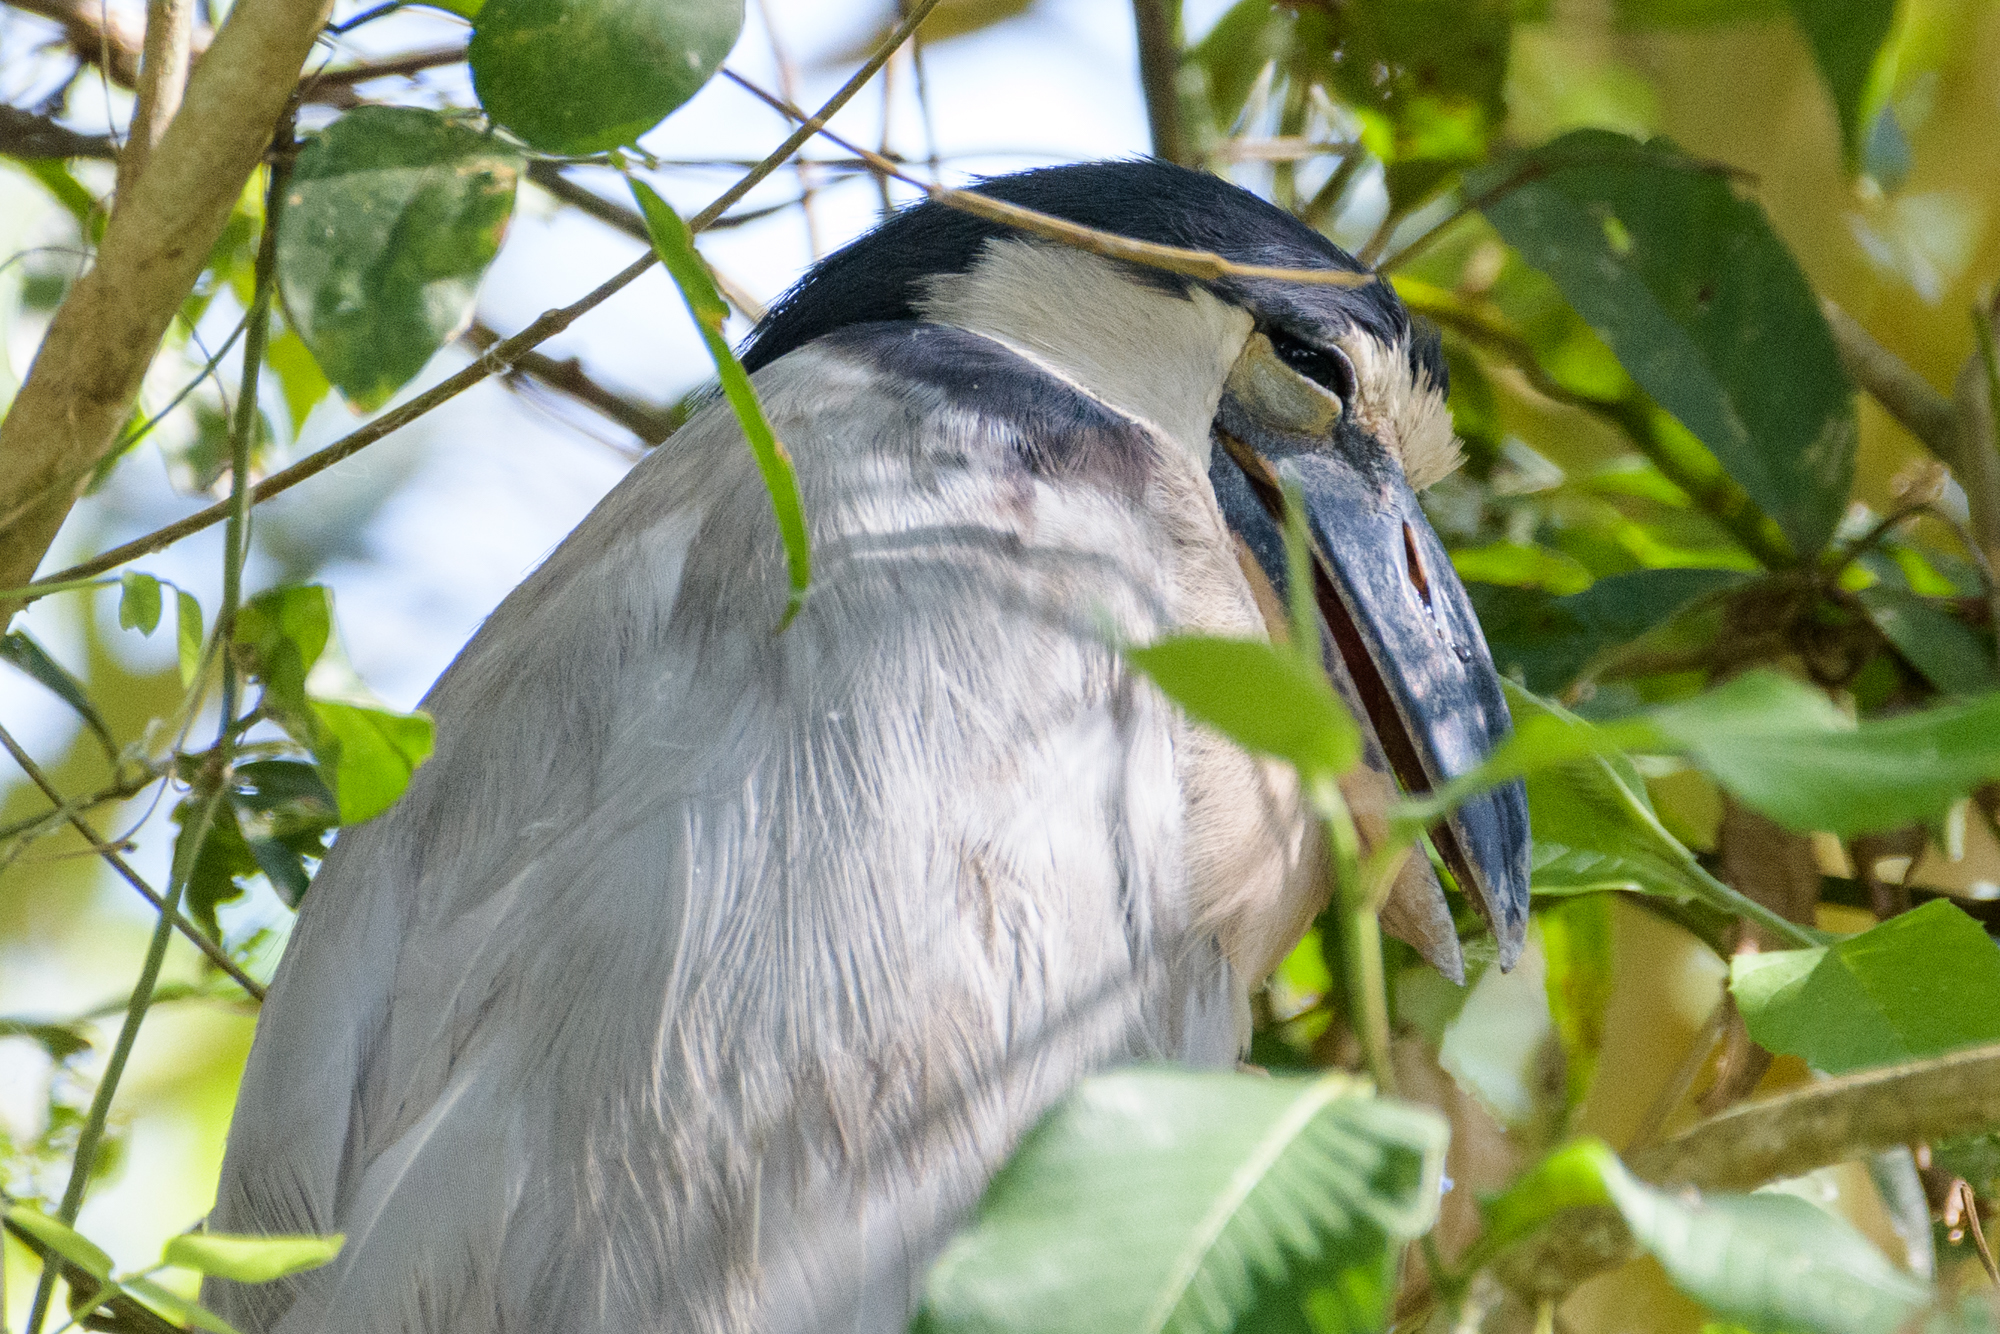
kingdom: Animalia
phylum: Chordata
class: Aves
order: Pelecaniformes
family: Ardeidae
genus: Cochlearius
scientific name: Cochlearius cochlearius
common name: Boat-billed heron
